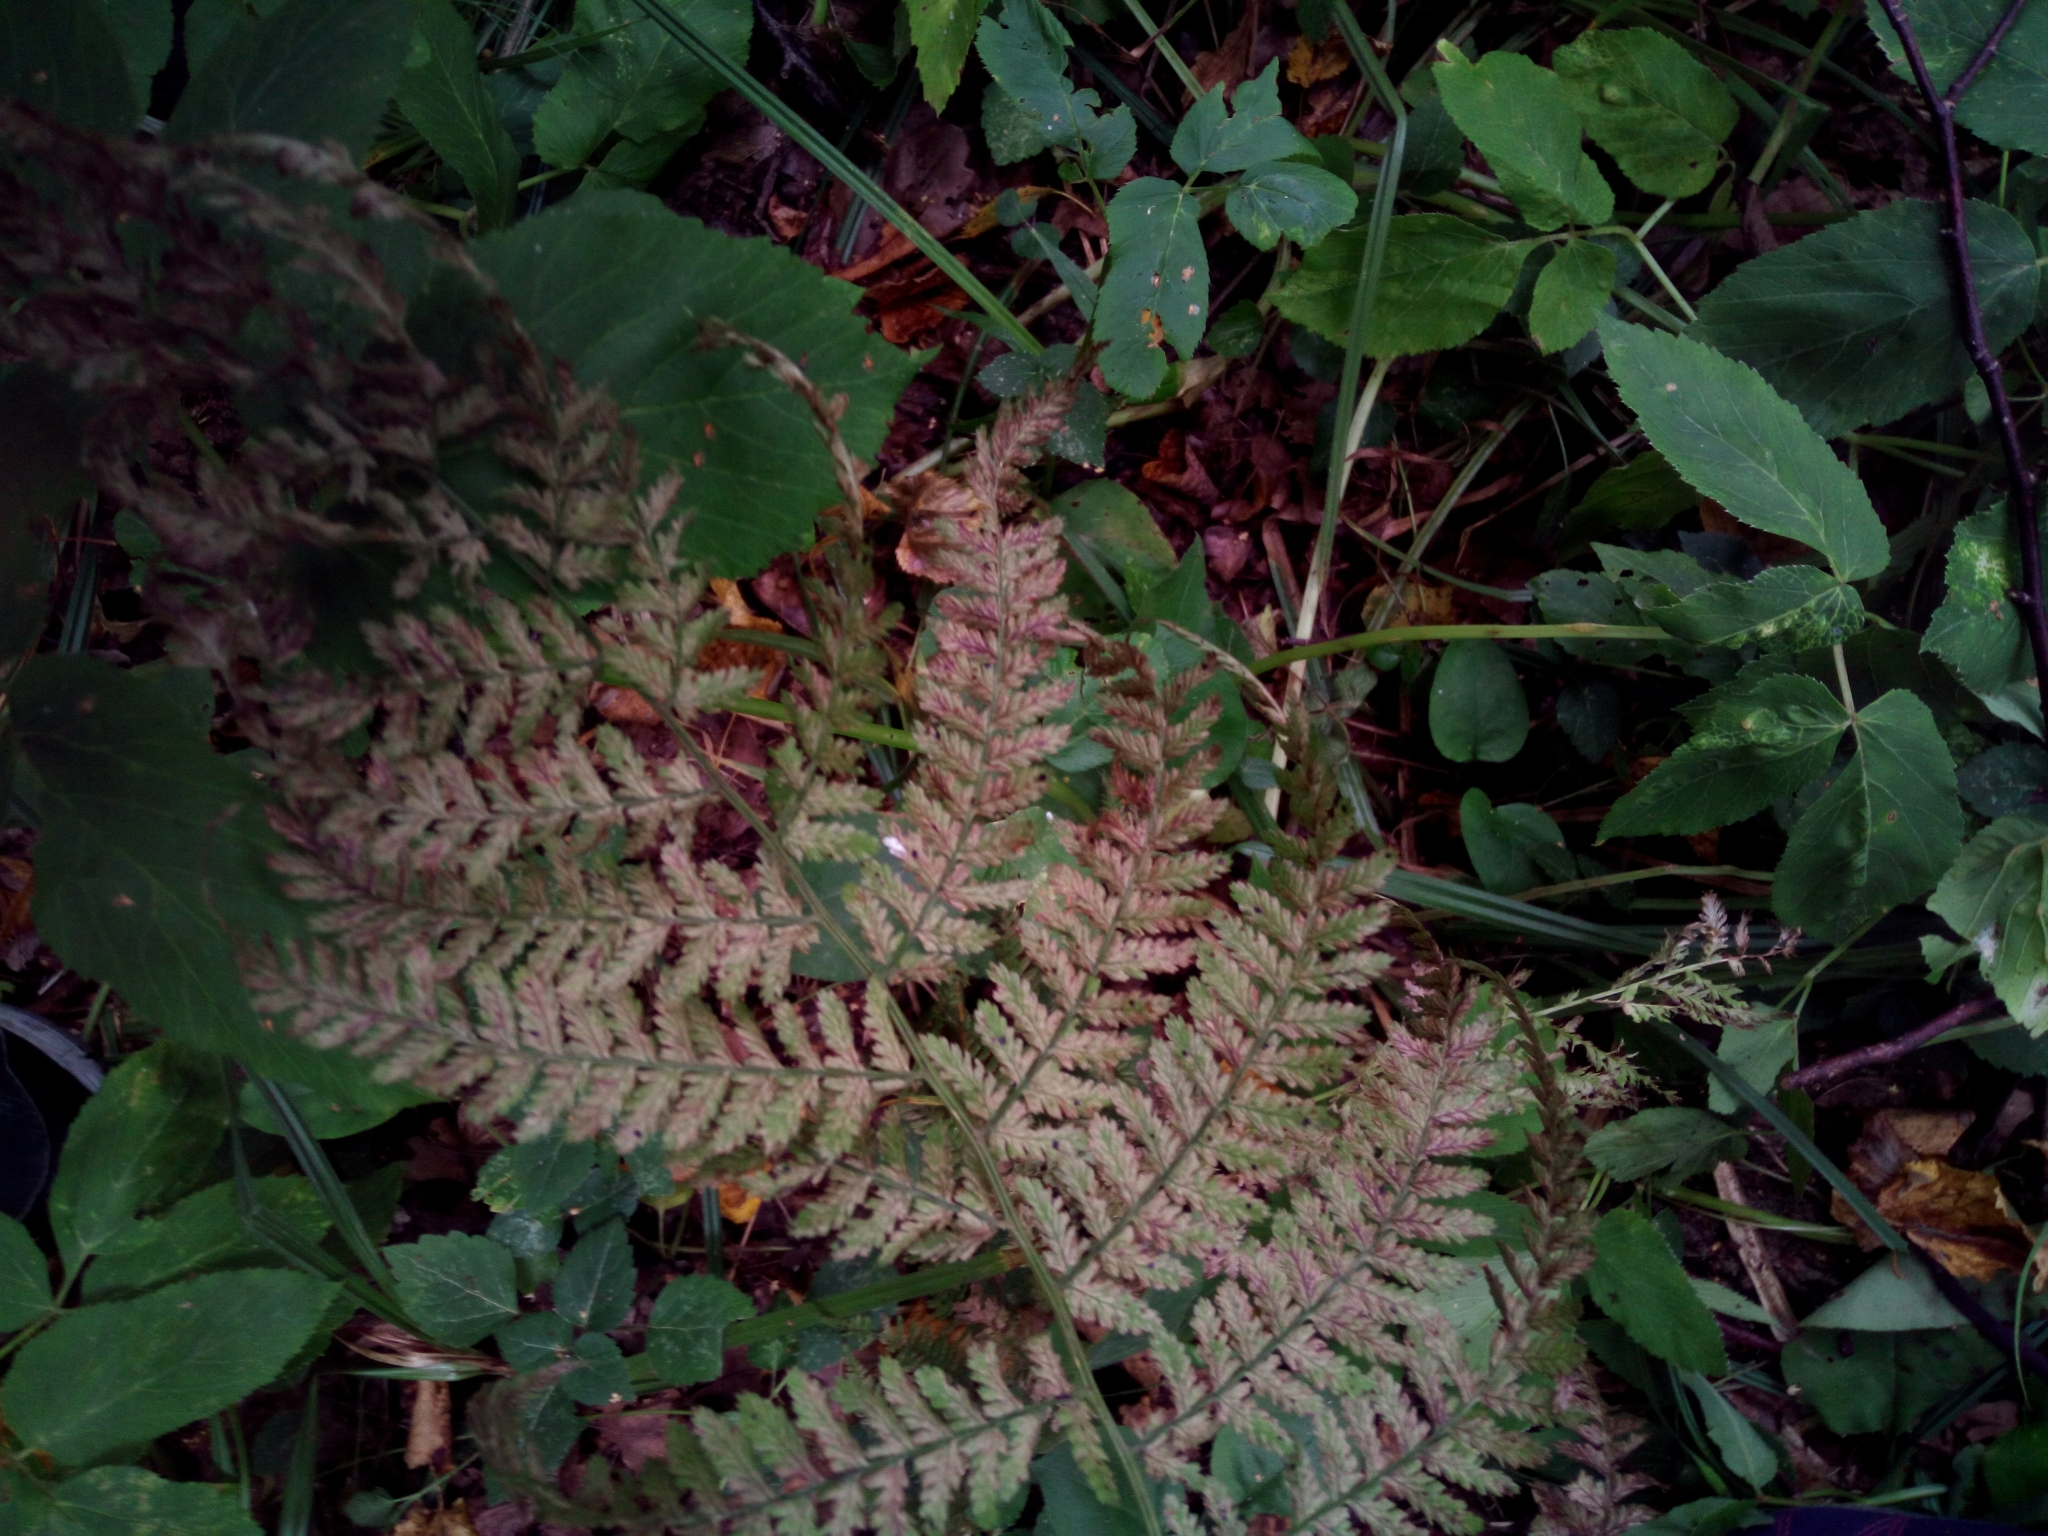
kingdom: Plantae
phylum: Tracheophyta
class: Polypodiopsida
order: Polypodiales
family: Athyriaceae
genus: Athyrium
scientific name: Athyrium filix-femina
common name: Lady fern
